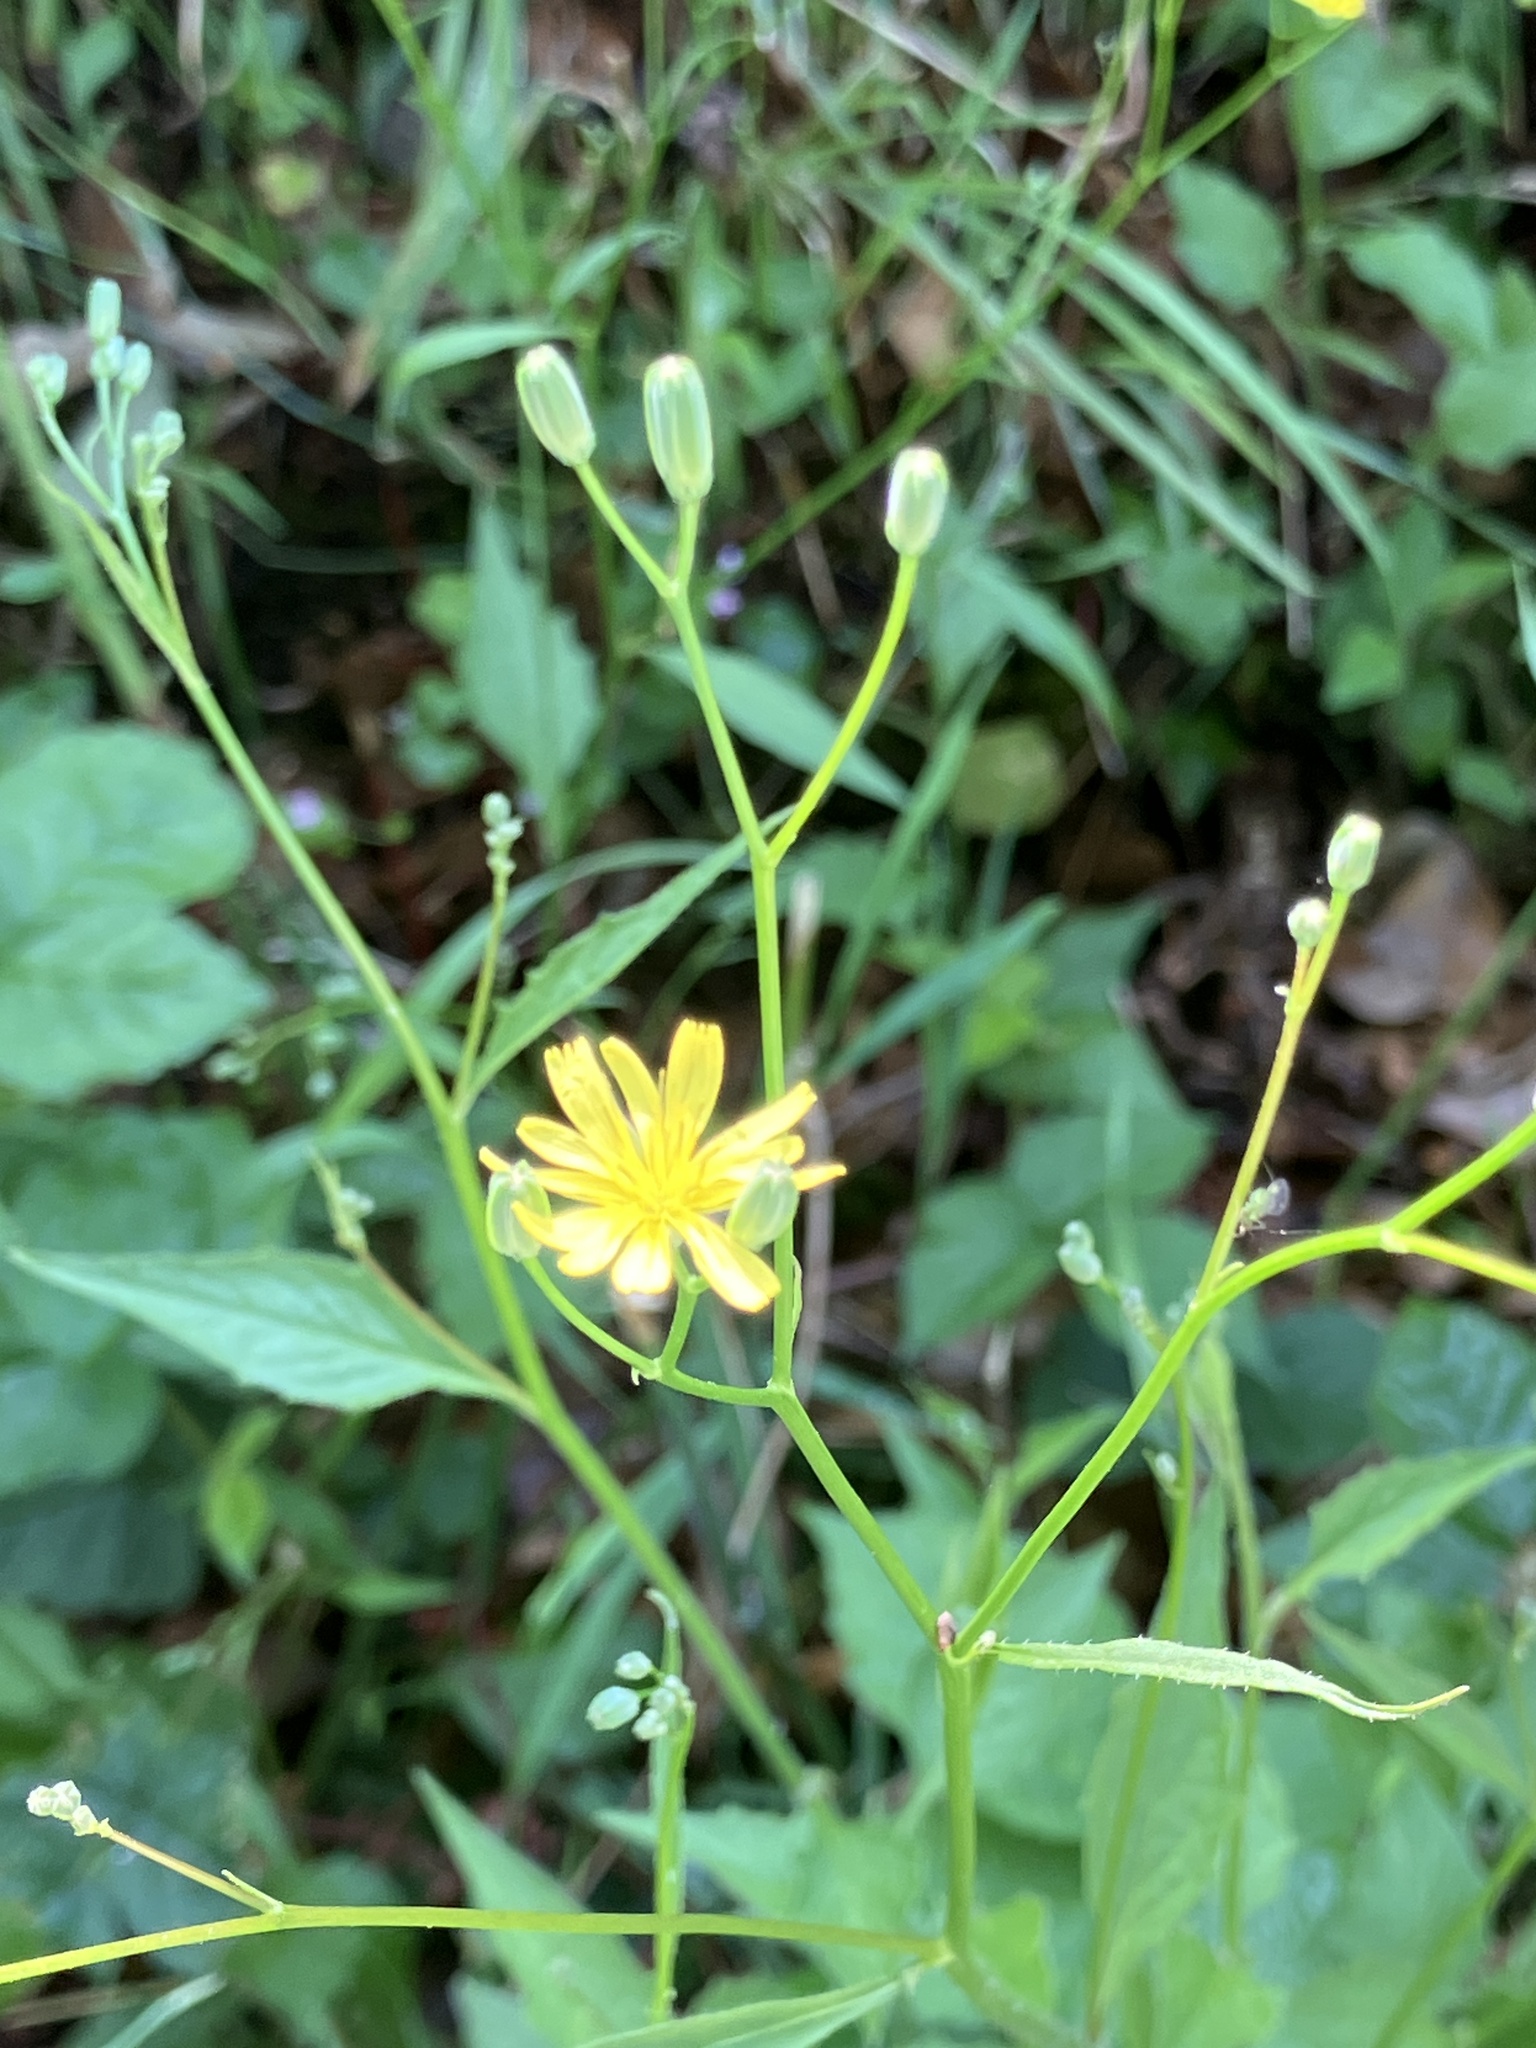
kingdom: Plantae
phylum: Tracheophyta
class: Magnoliopsida
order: Asterales
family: Asteraceae
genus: Lapsana
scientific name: Lapsana communis
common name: Nipplewort
